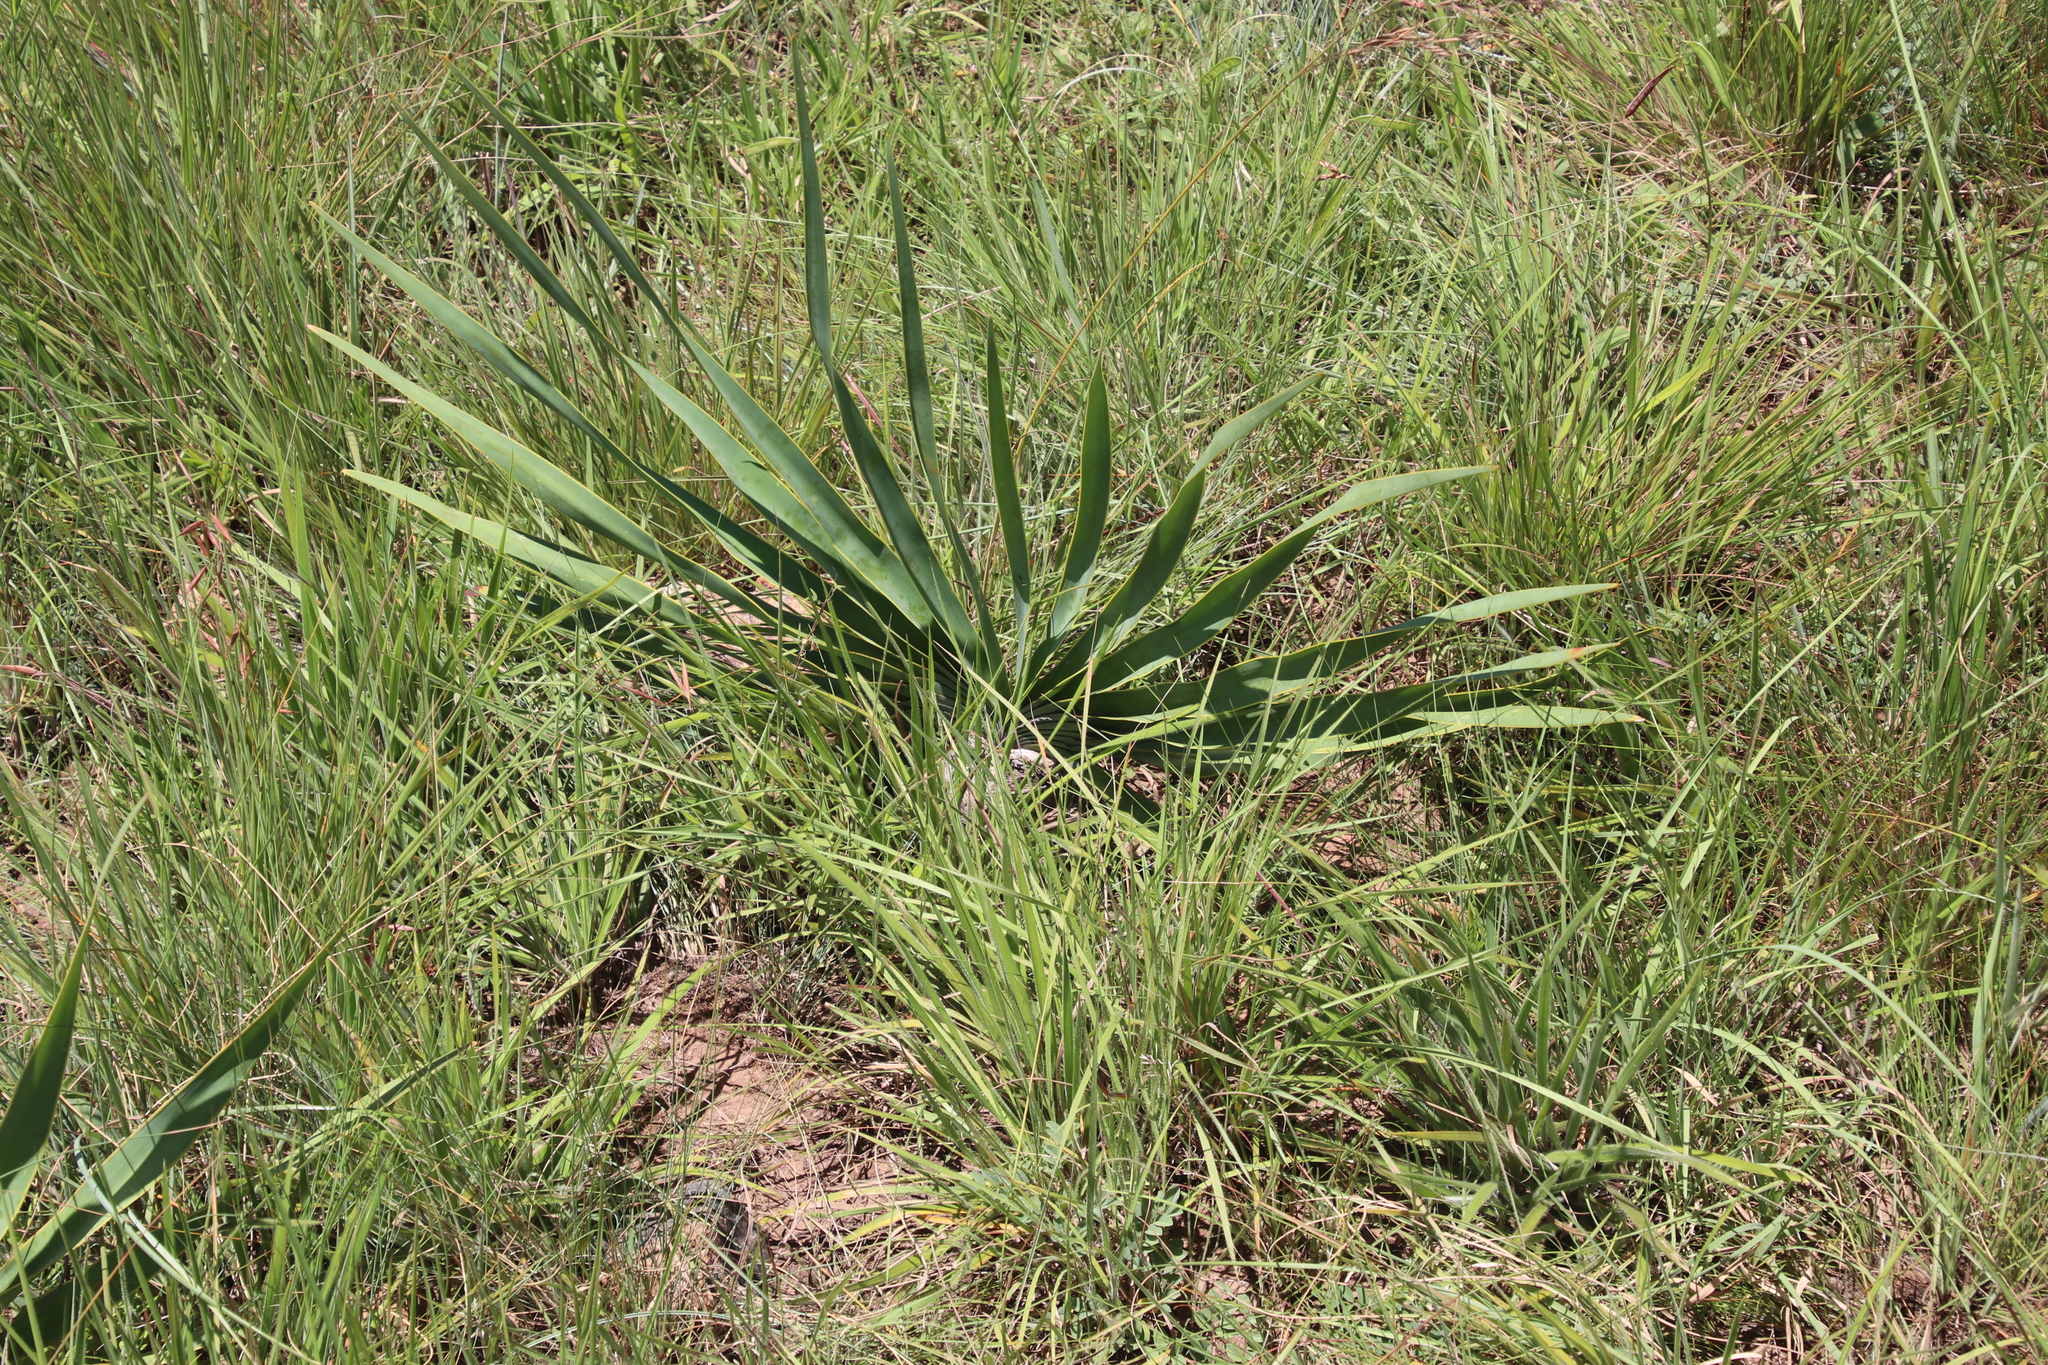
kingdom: Plantae
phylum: Tracheophyta
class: Liliopsida
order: Asparagales
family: Amaryllidaceae
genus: Boophone
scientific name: Boophone disticha
